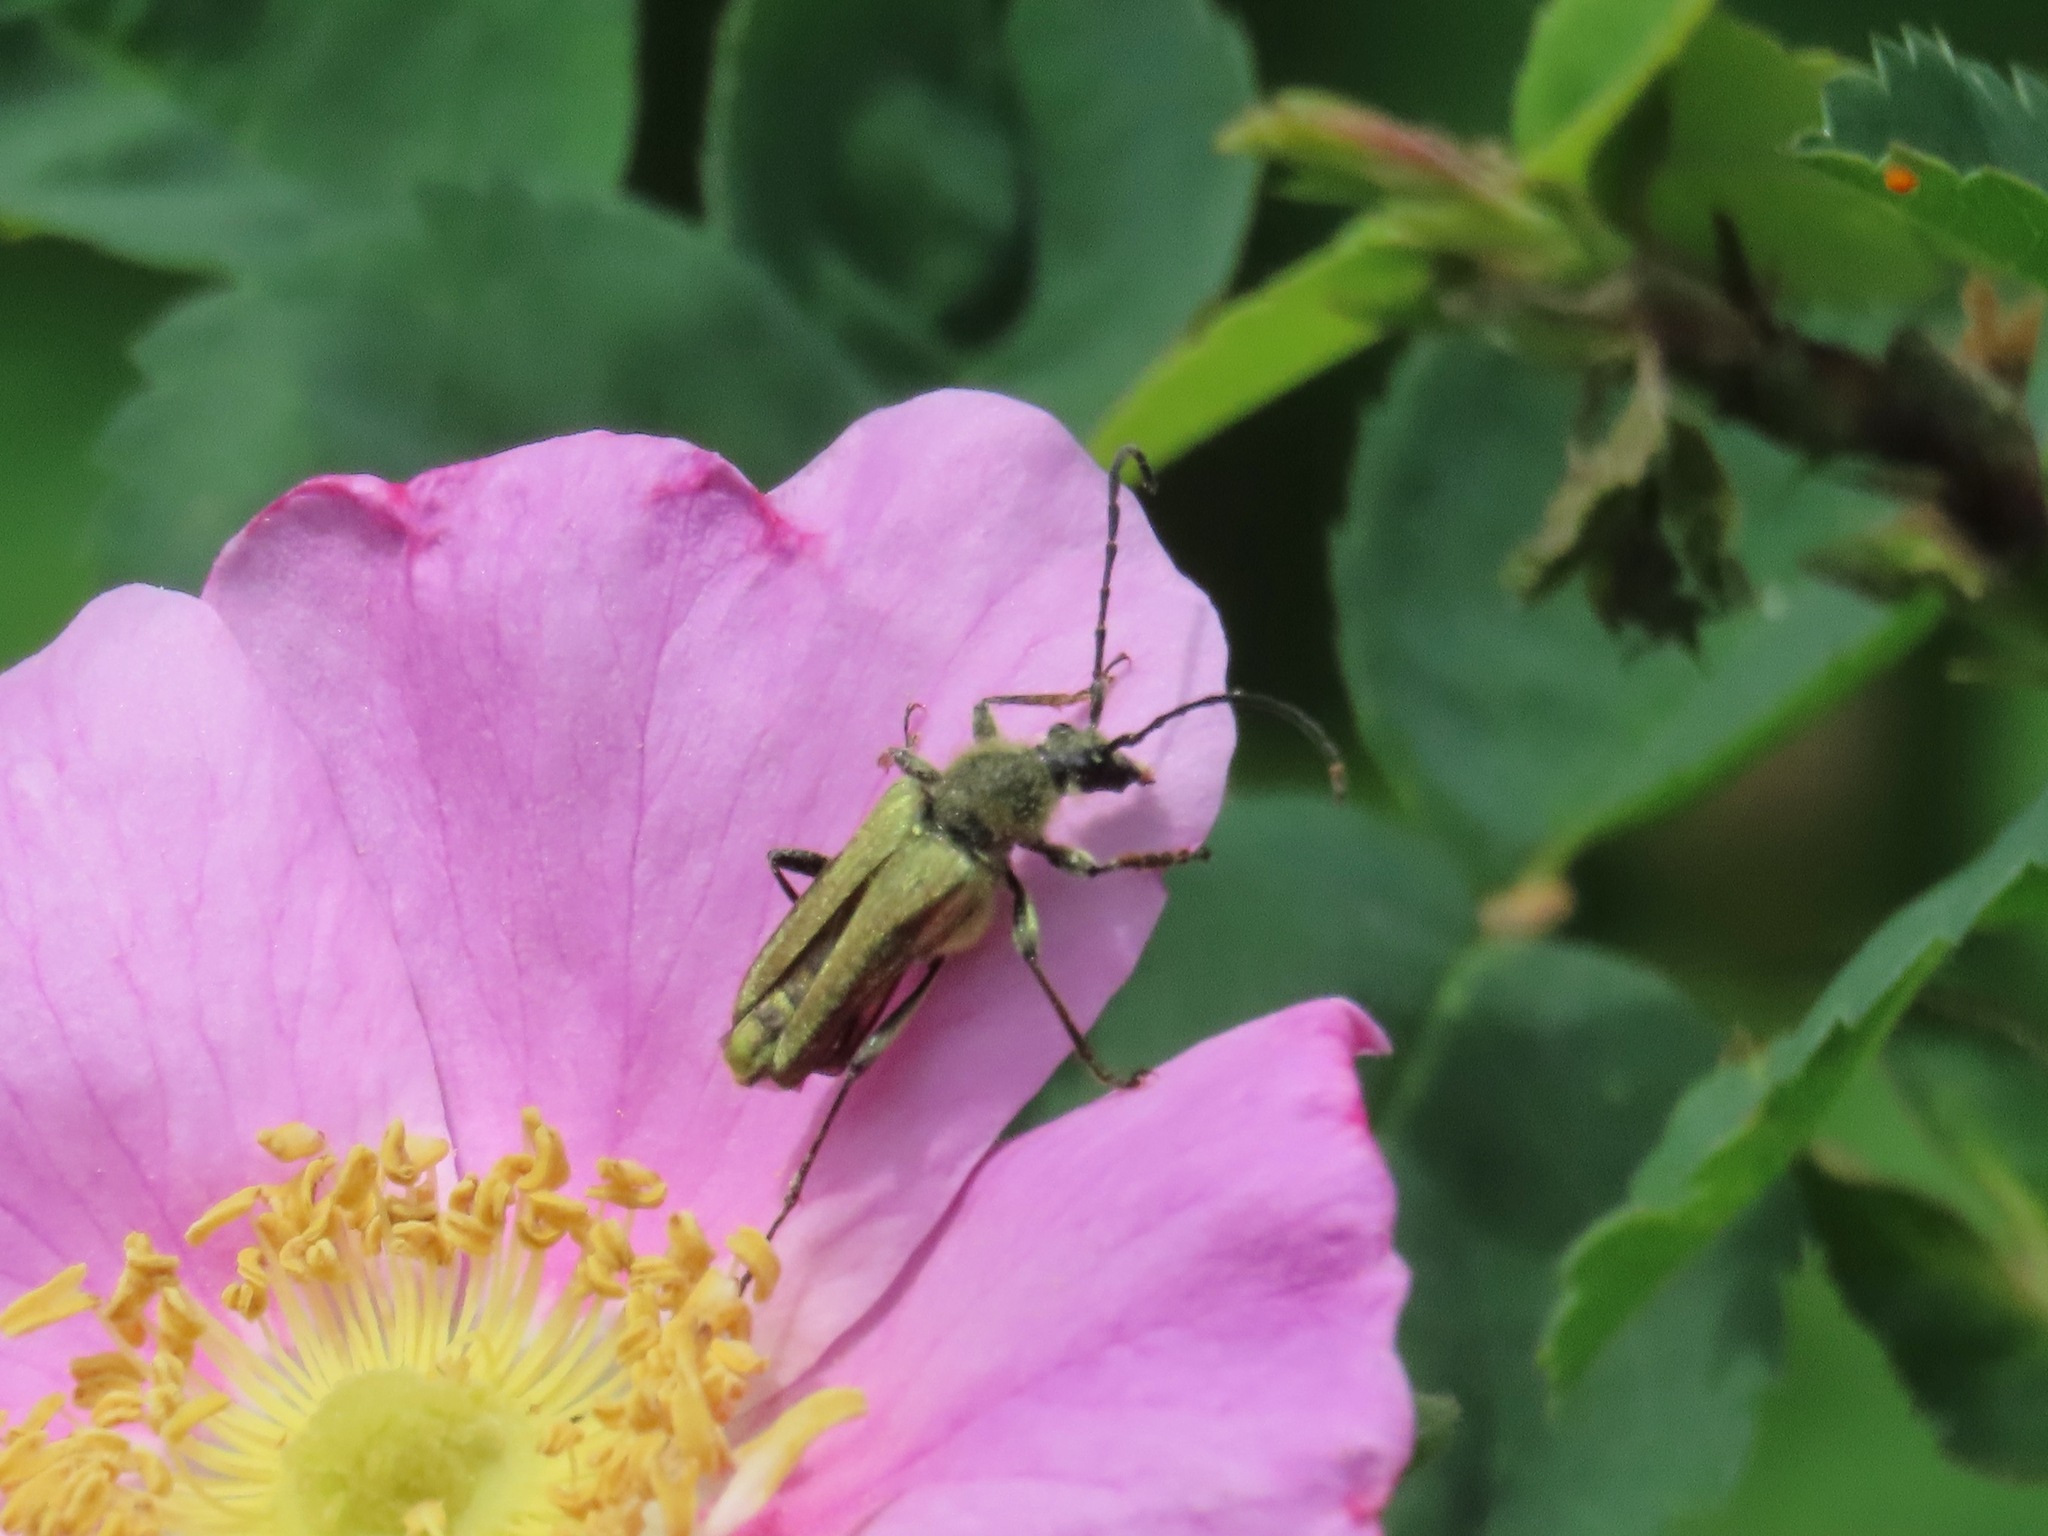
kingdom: Animalia
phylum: Arthropoda
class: Insecta
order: Coleoptera
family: Cerambycidae
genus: Cosmosalia
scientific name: Cosmosalia chrysocoma
